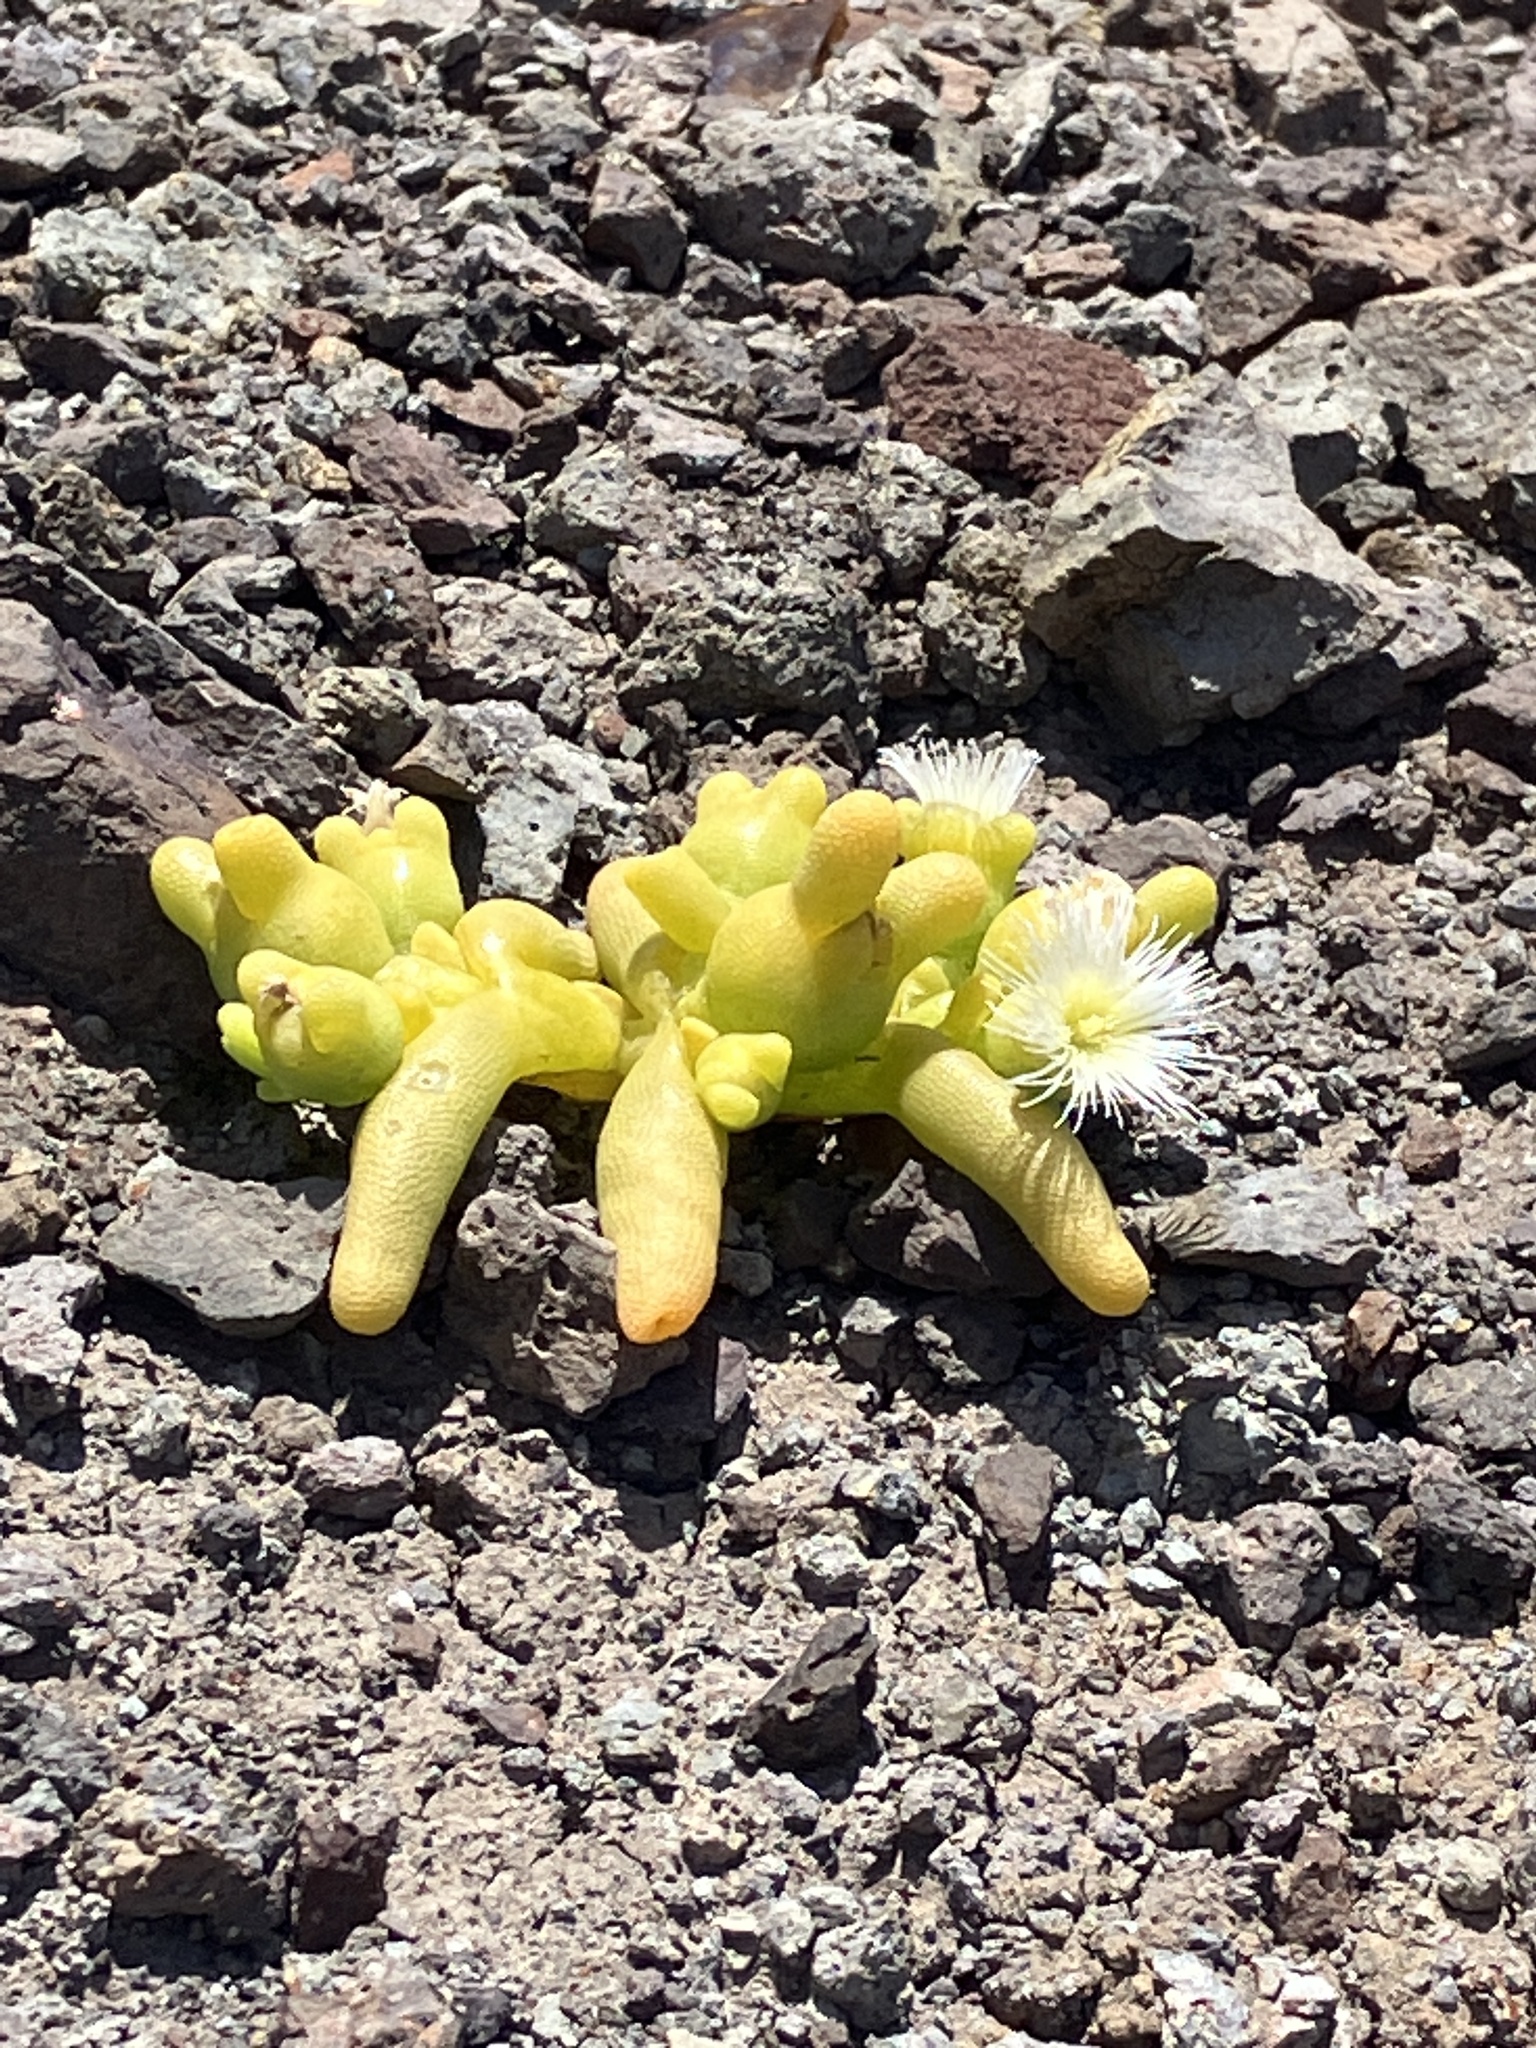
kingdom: Plantae
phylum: Tracheophyta
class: Magnoliopsida
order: Caryophyllales
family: Aizoaceae
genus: Mesembryanthemum
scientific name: Mesembryanthemum cryptanthum
